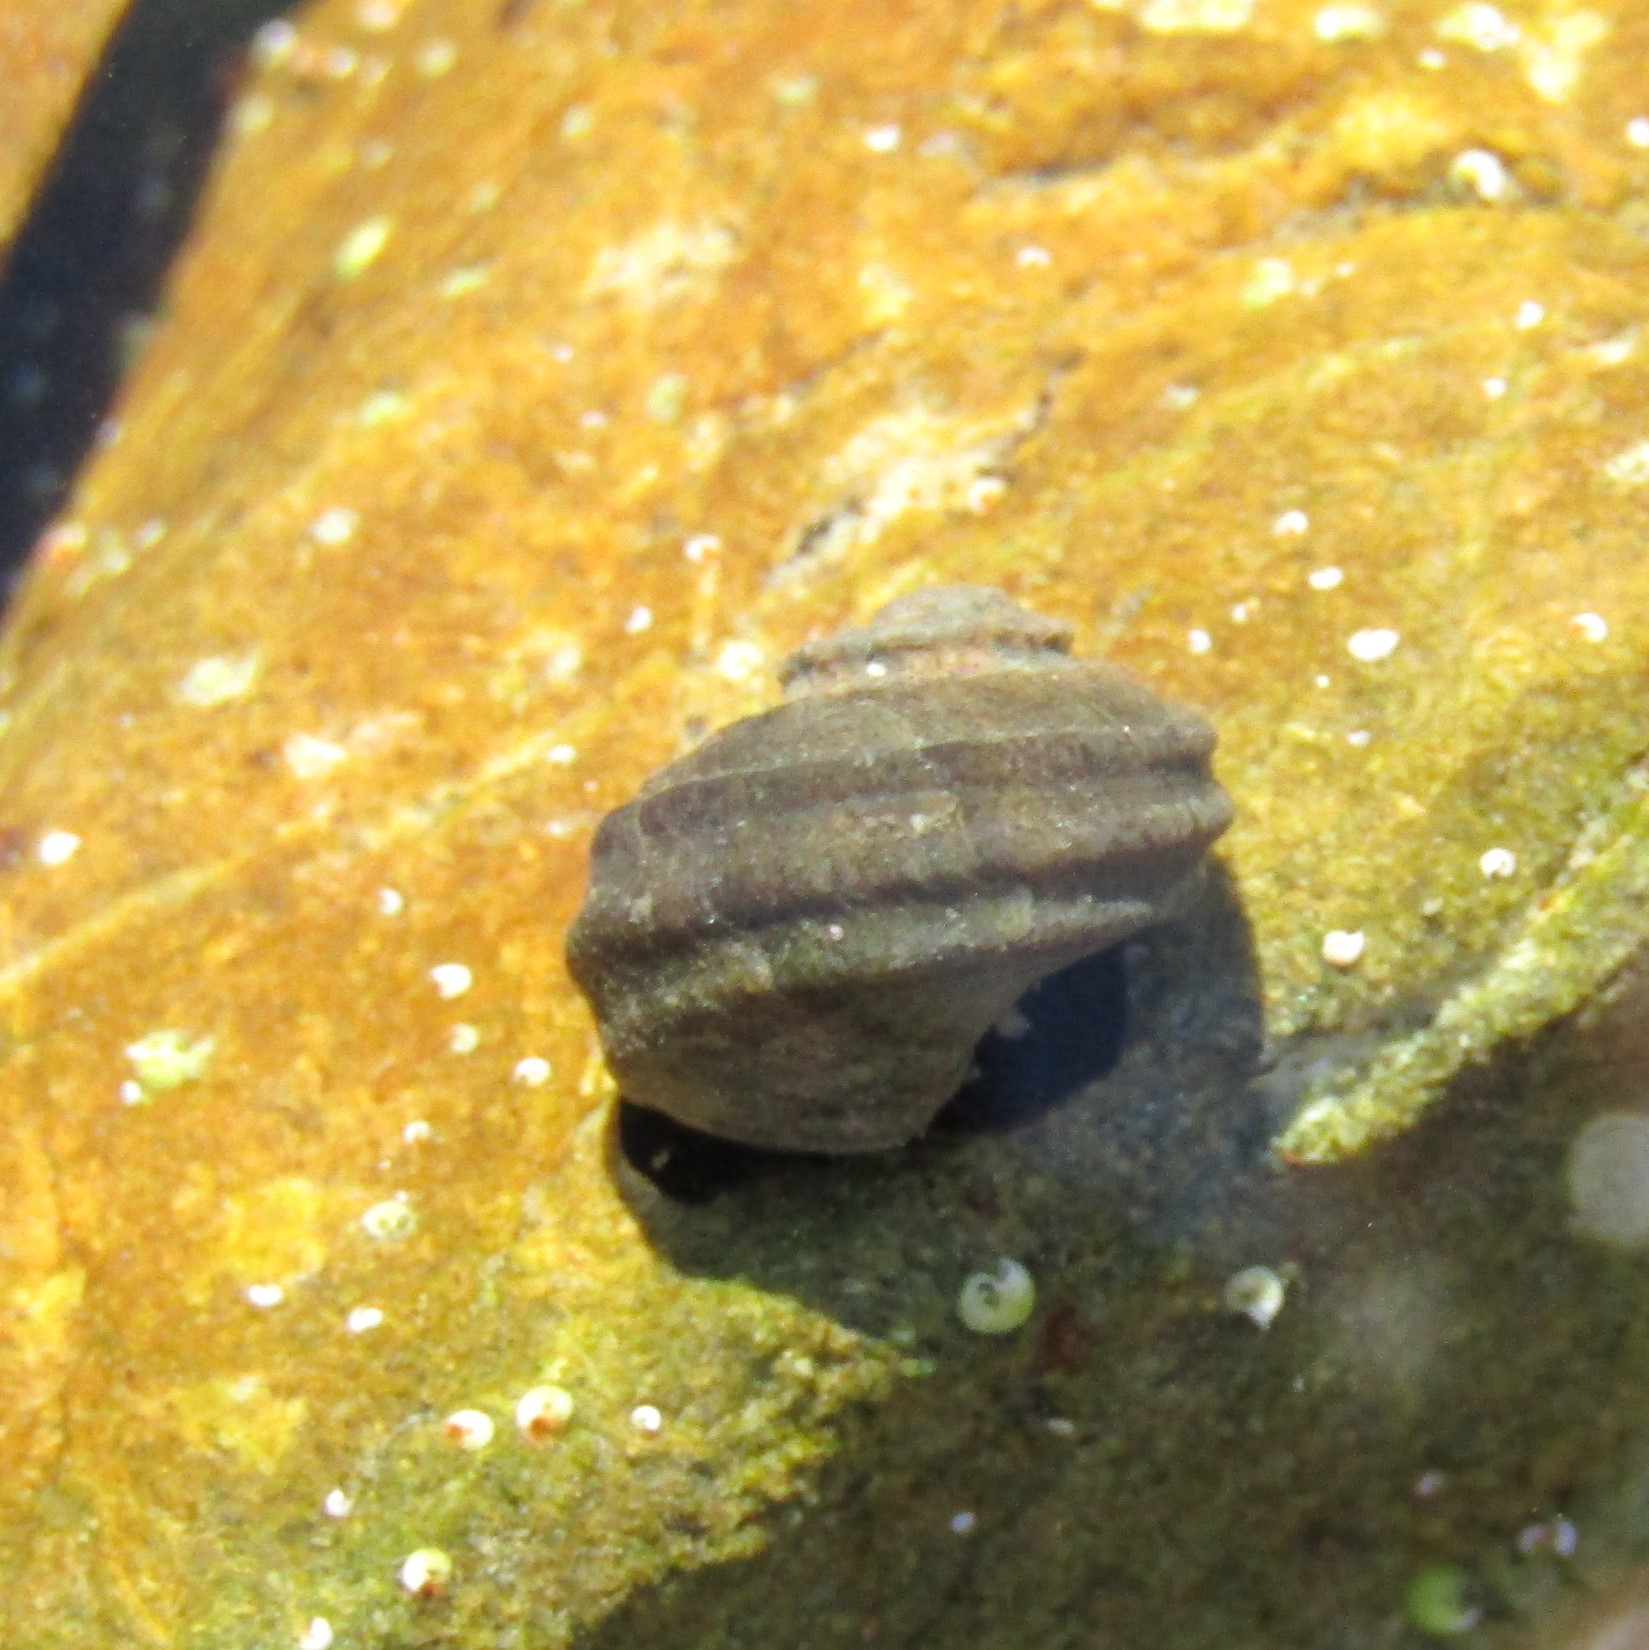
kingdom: Animalia
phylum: Mollusca
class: Gastropoda
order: Trochida
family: Turbinidae
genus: Lunella
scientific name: Lunella smaragda
